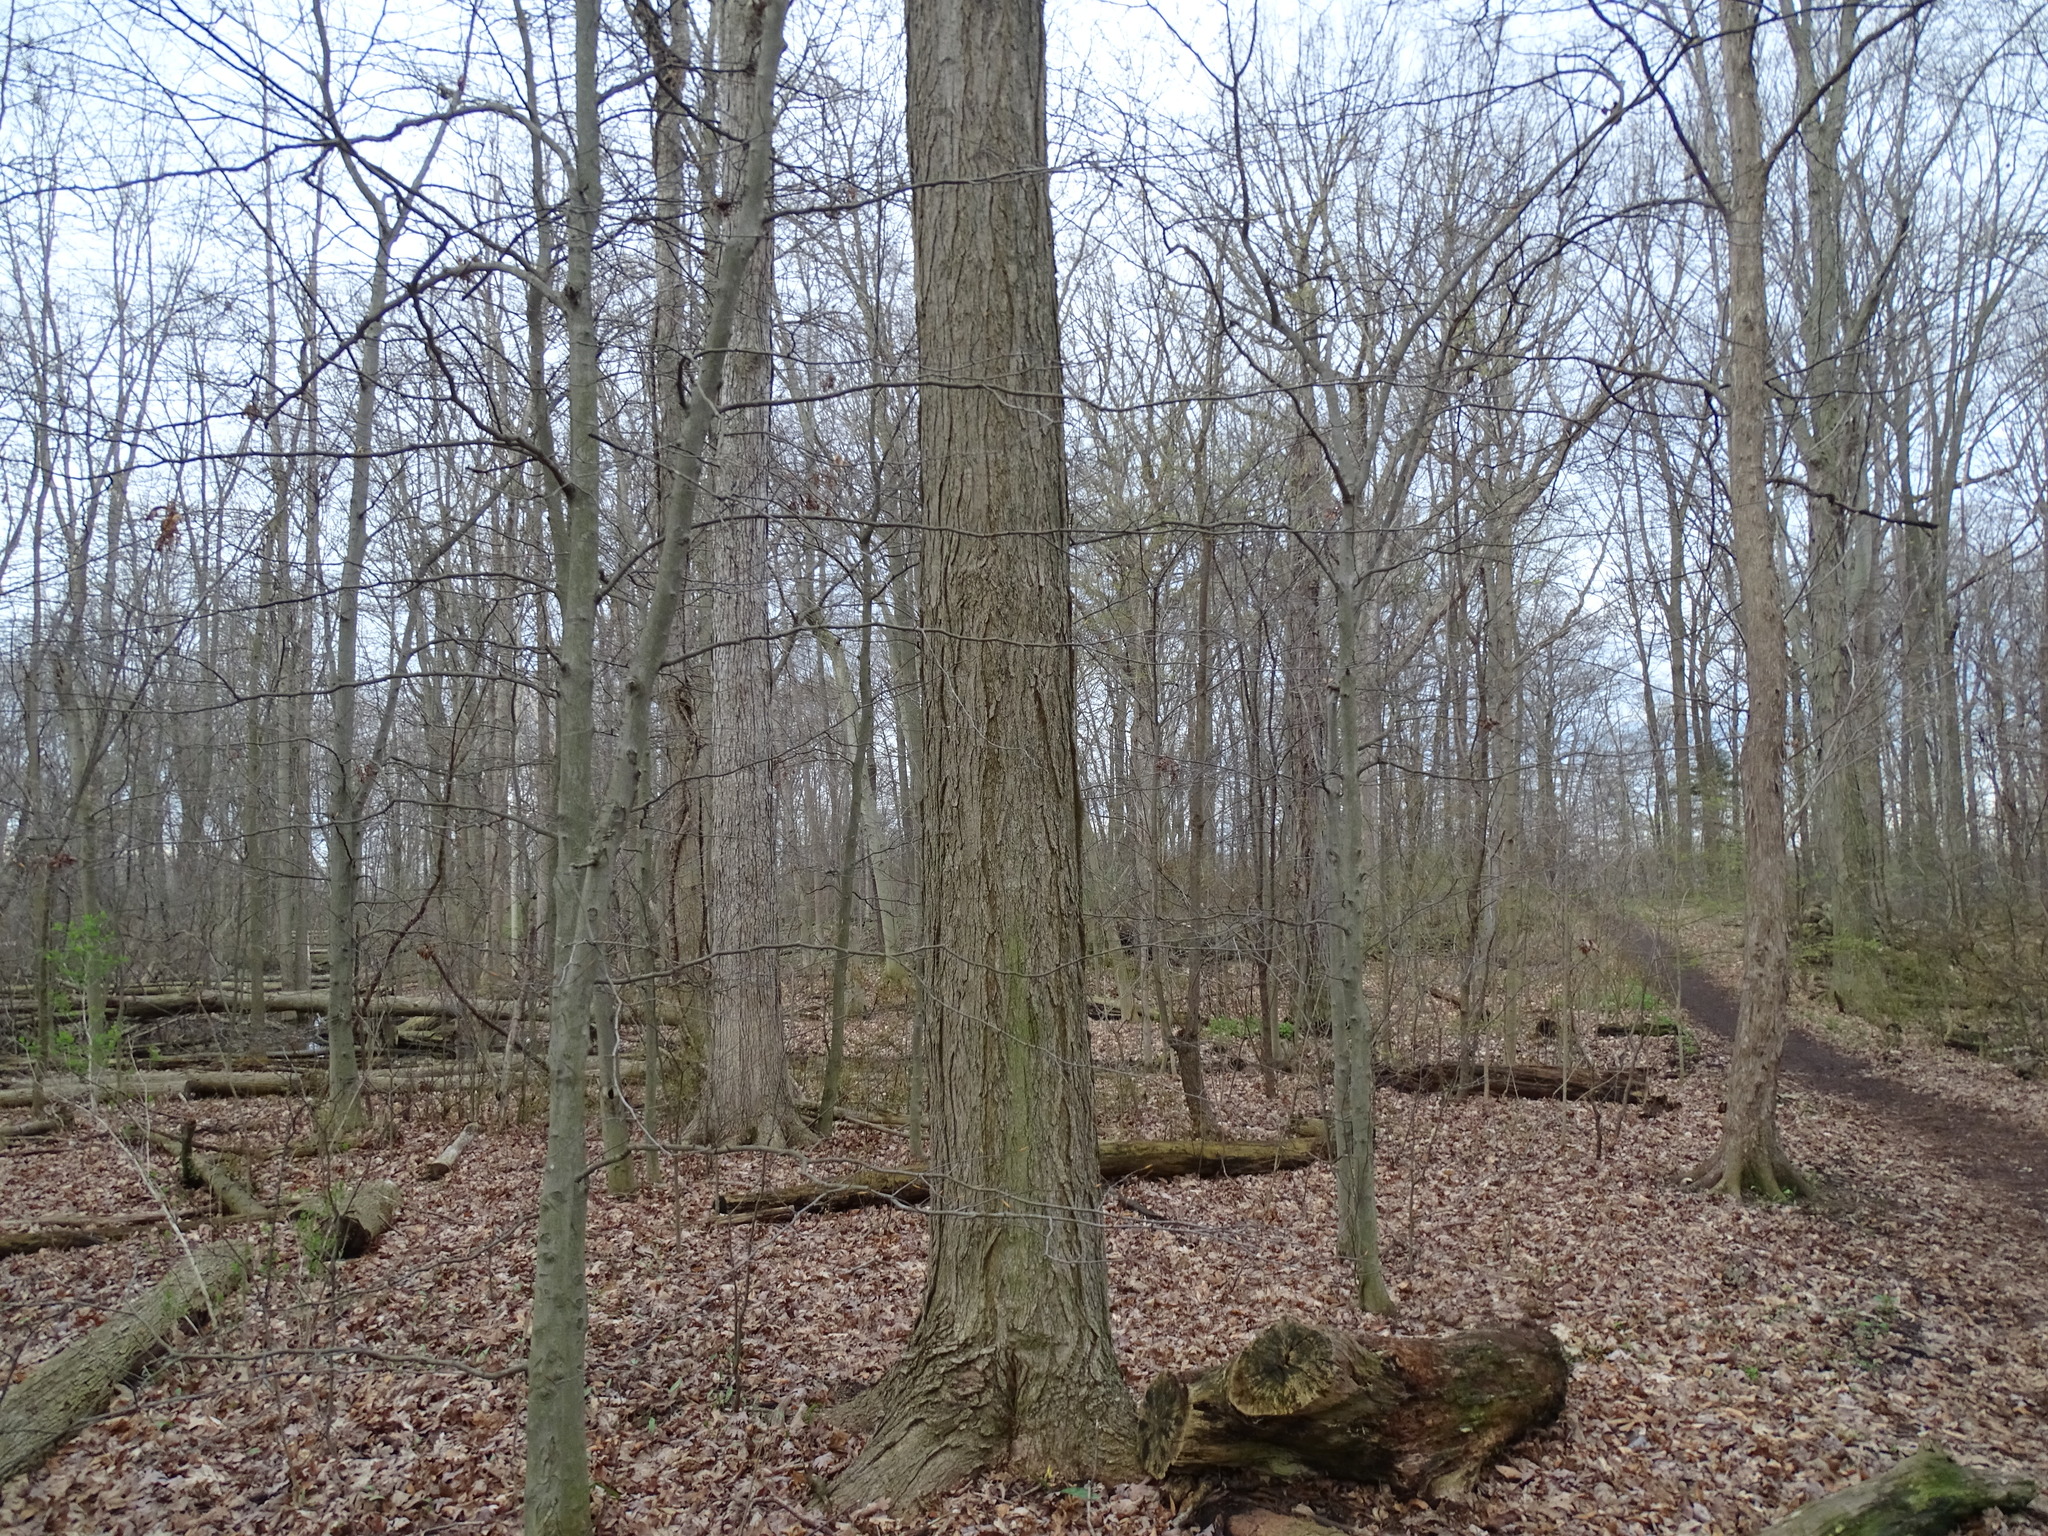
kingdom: Plantae
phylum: Tracheophyta
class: Magnoliopsida
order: Sapindales
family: Sapindaceae
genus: Acer
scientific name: Acer saccharum
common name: Sugar maple
